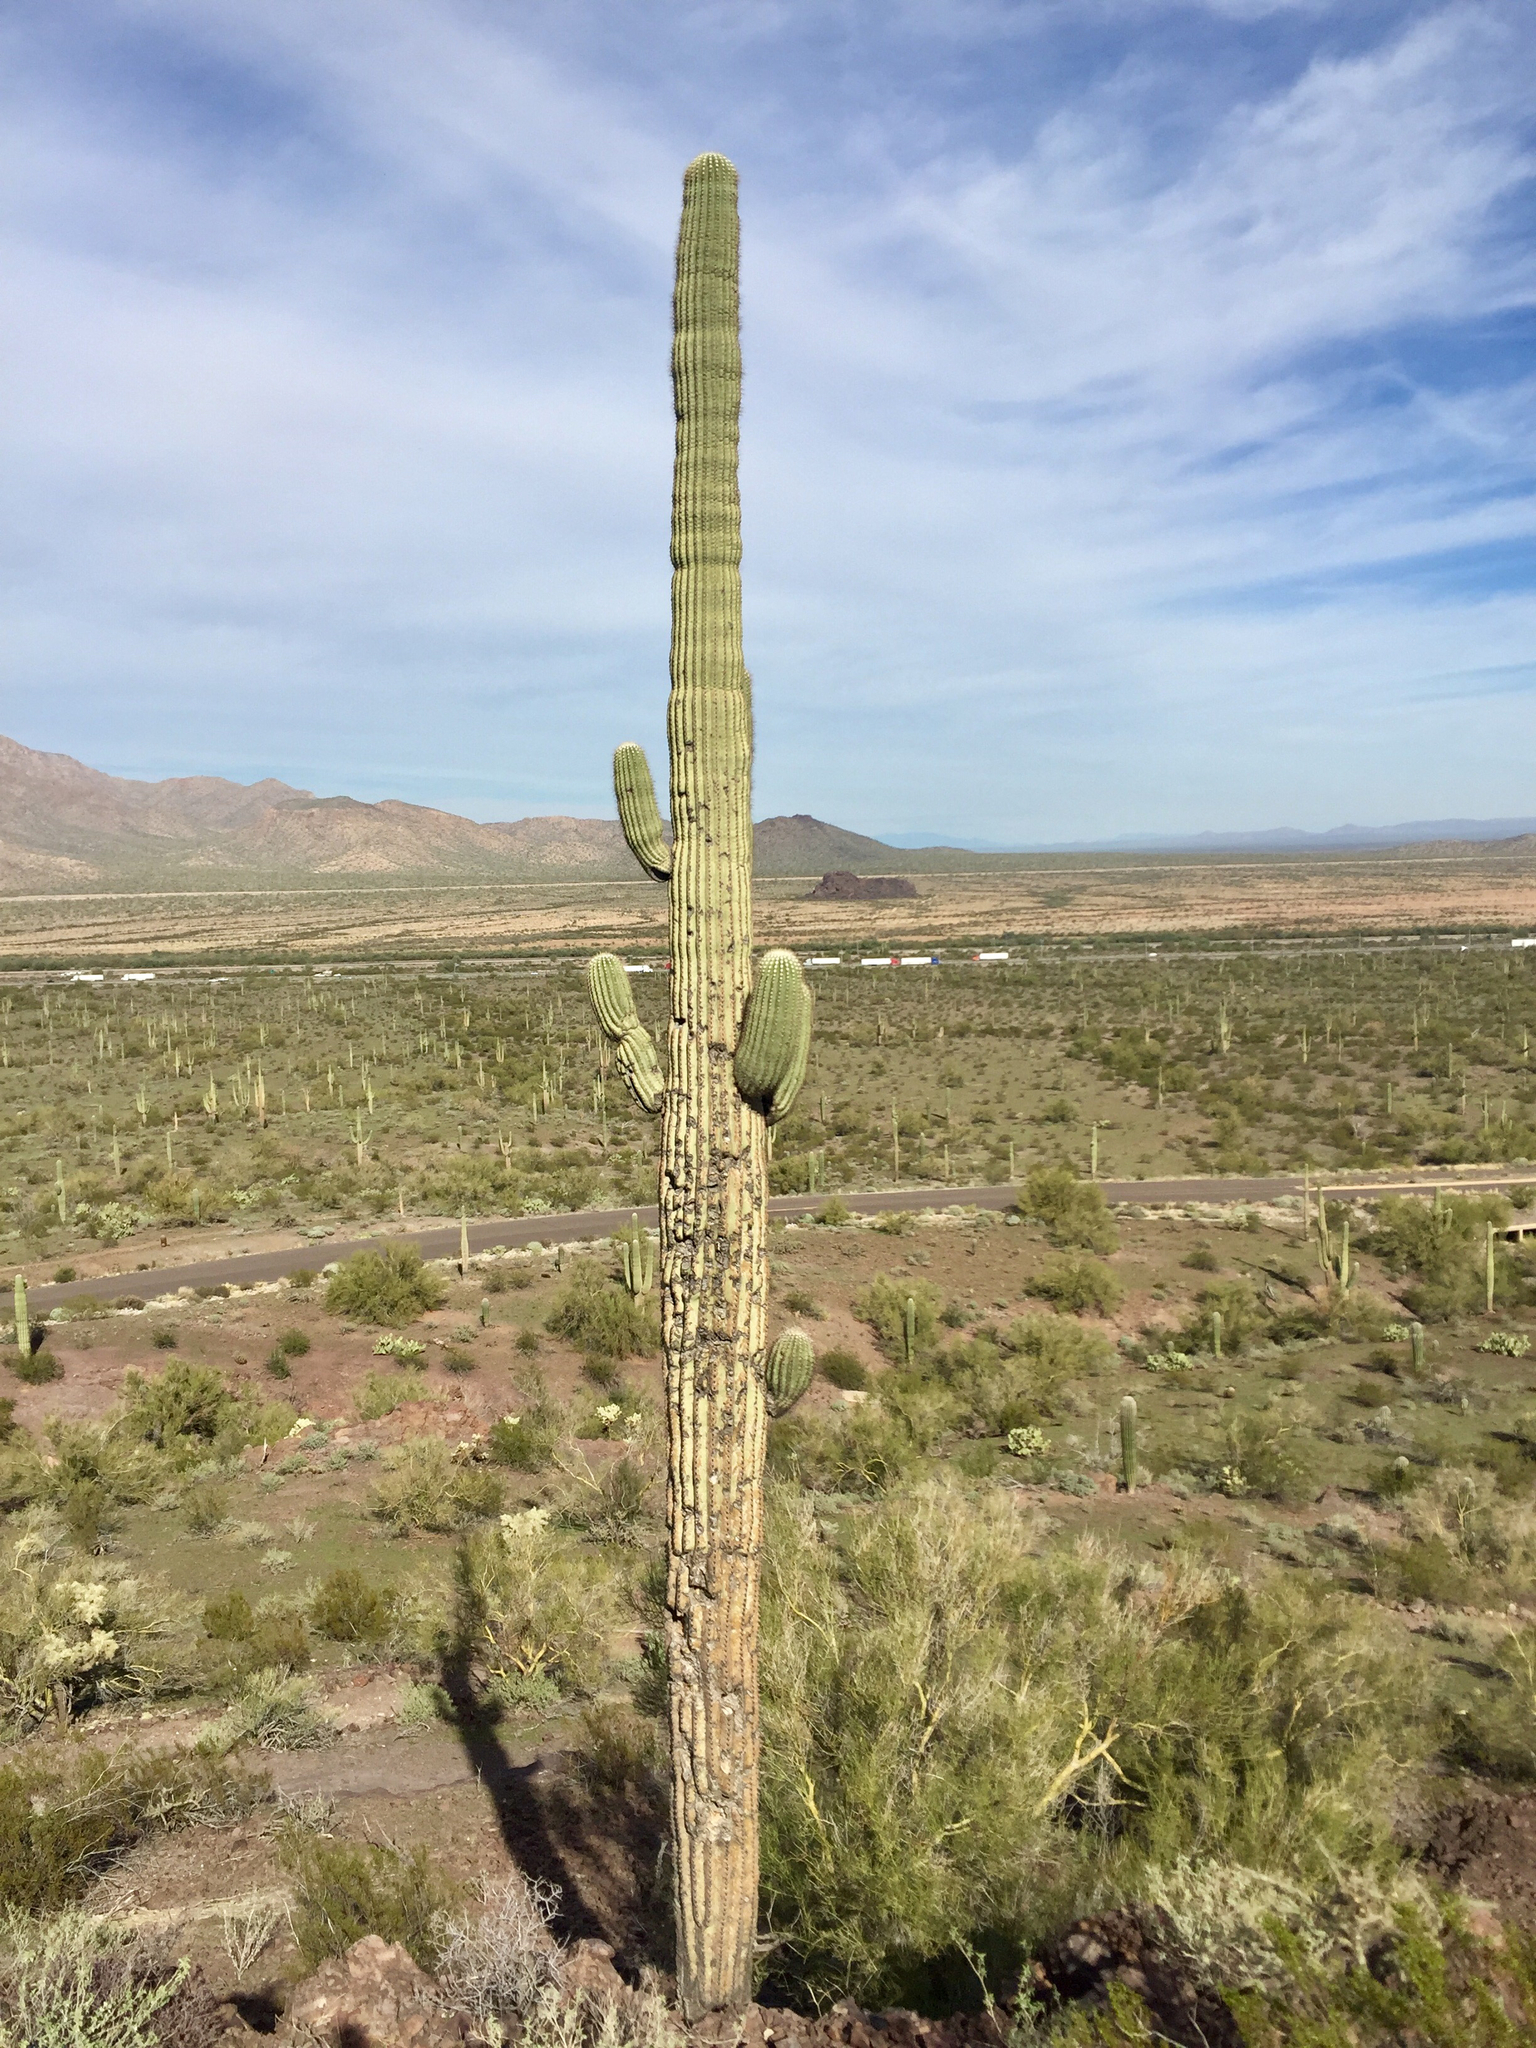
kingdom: Plantae
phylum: Tracheophyta
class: Magnoliopsida
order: Caryophyllales
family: Cactaceae
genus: Carnegiea
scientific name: Carnegiea gigantea
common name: Saguaro
